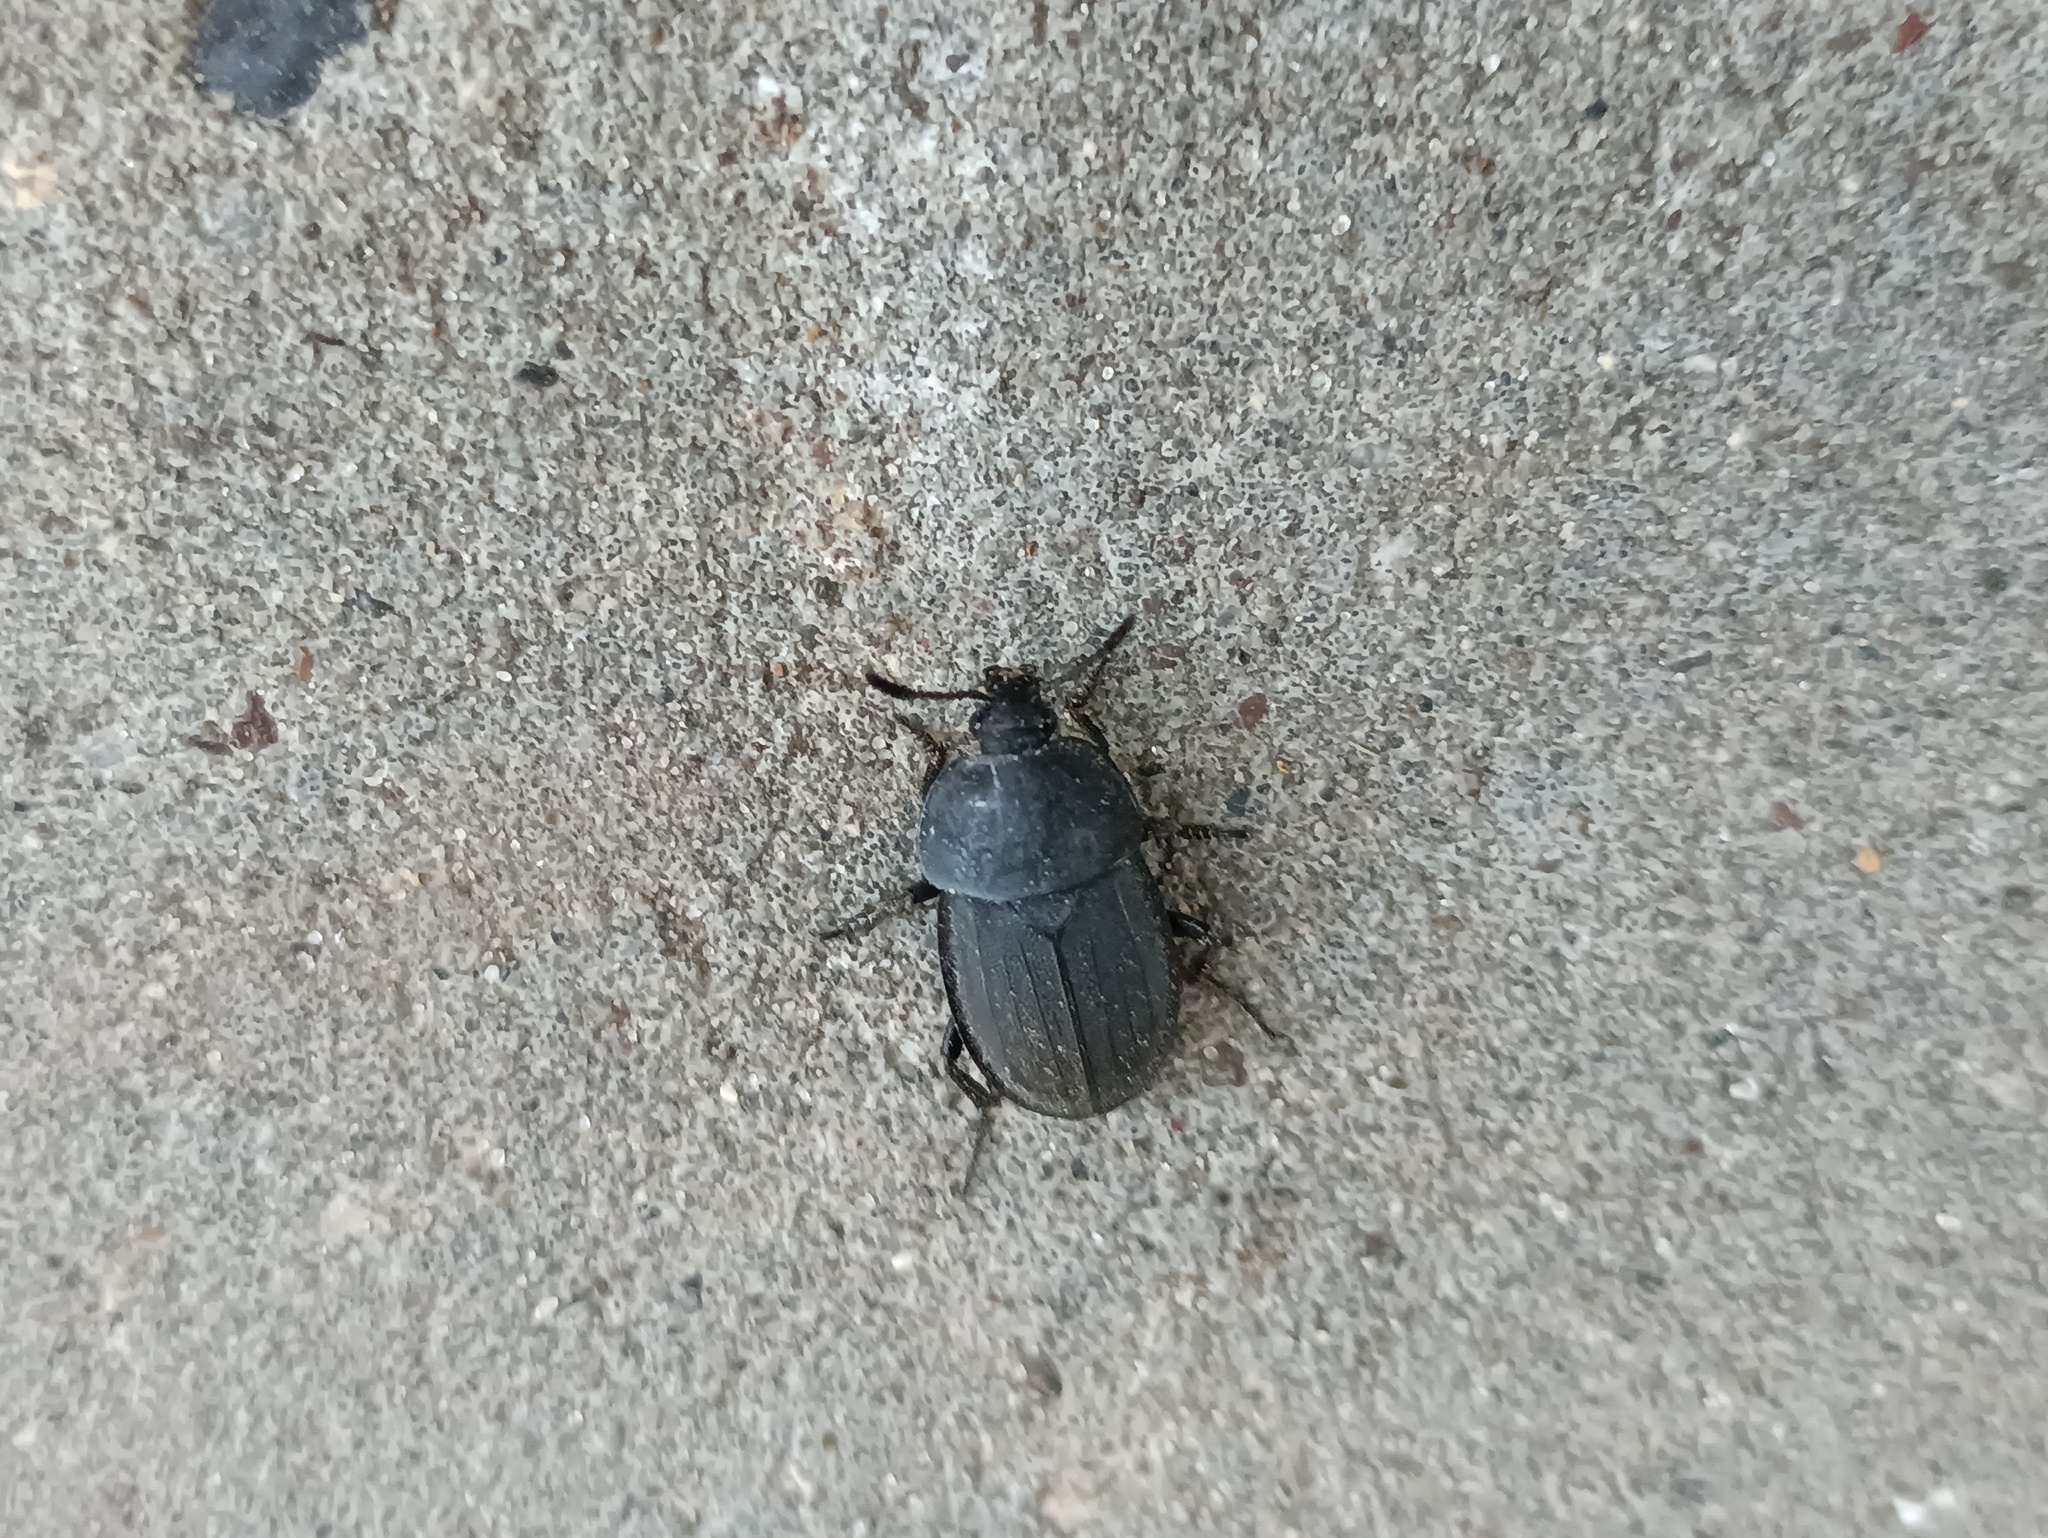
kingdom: Animalia
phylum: Arthropoda
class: Insecta
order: Coleoptera
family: Staphylinidae
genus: Silpha
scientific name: Silpha obscura
